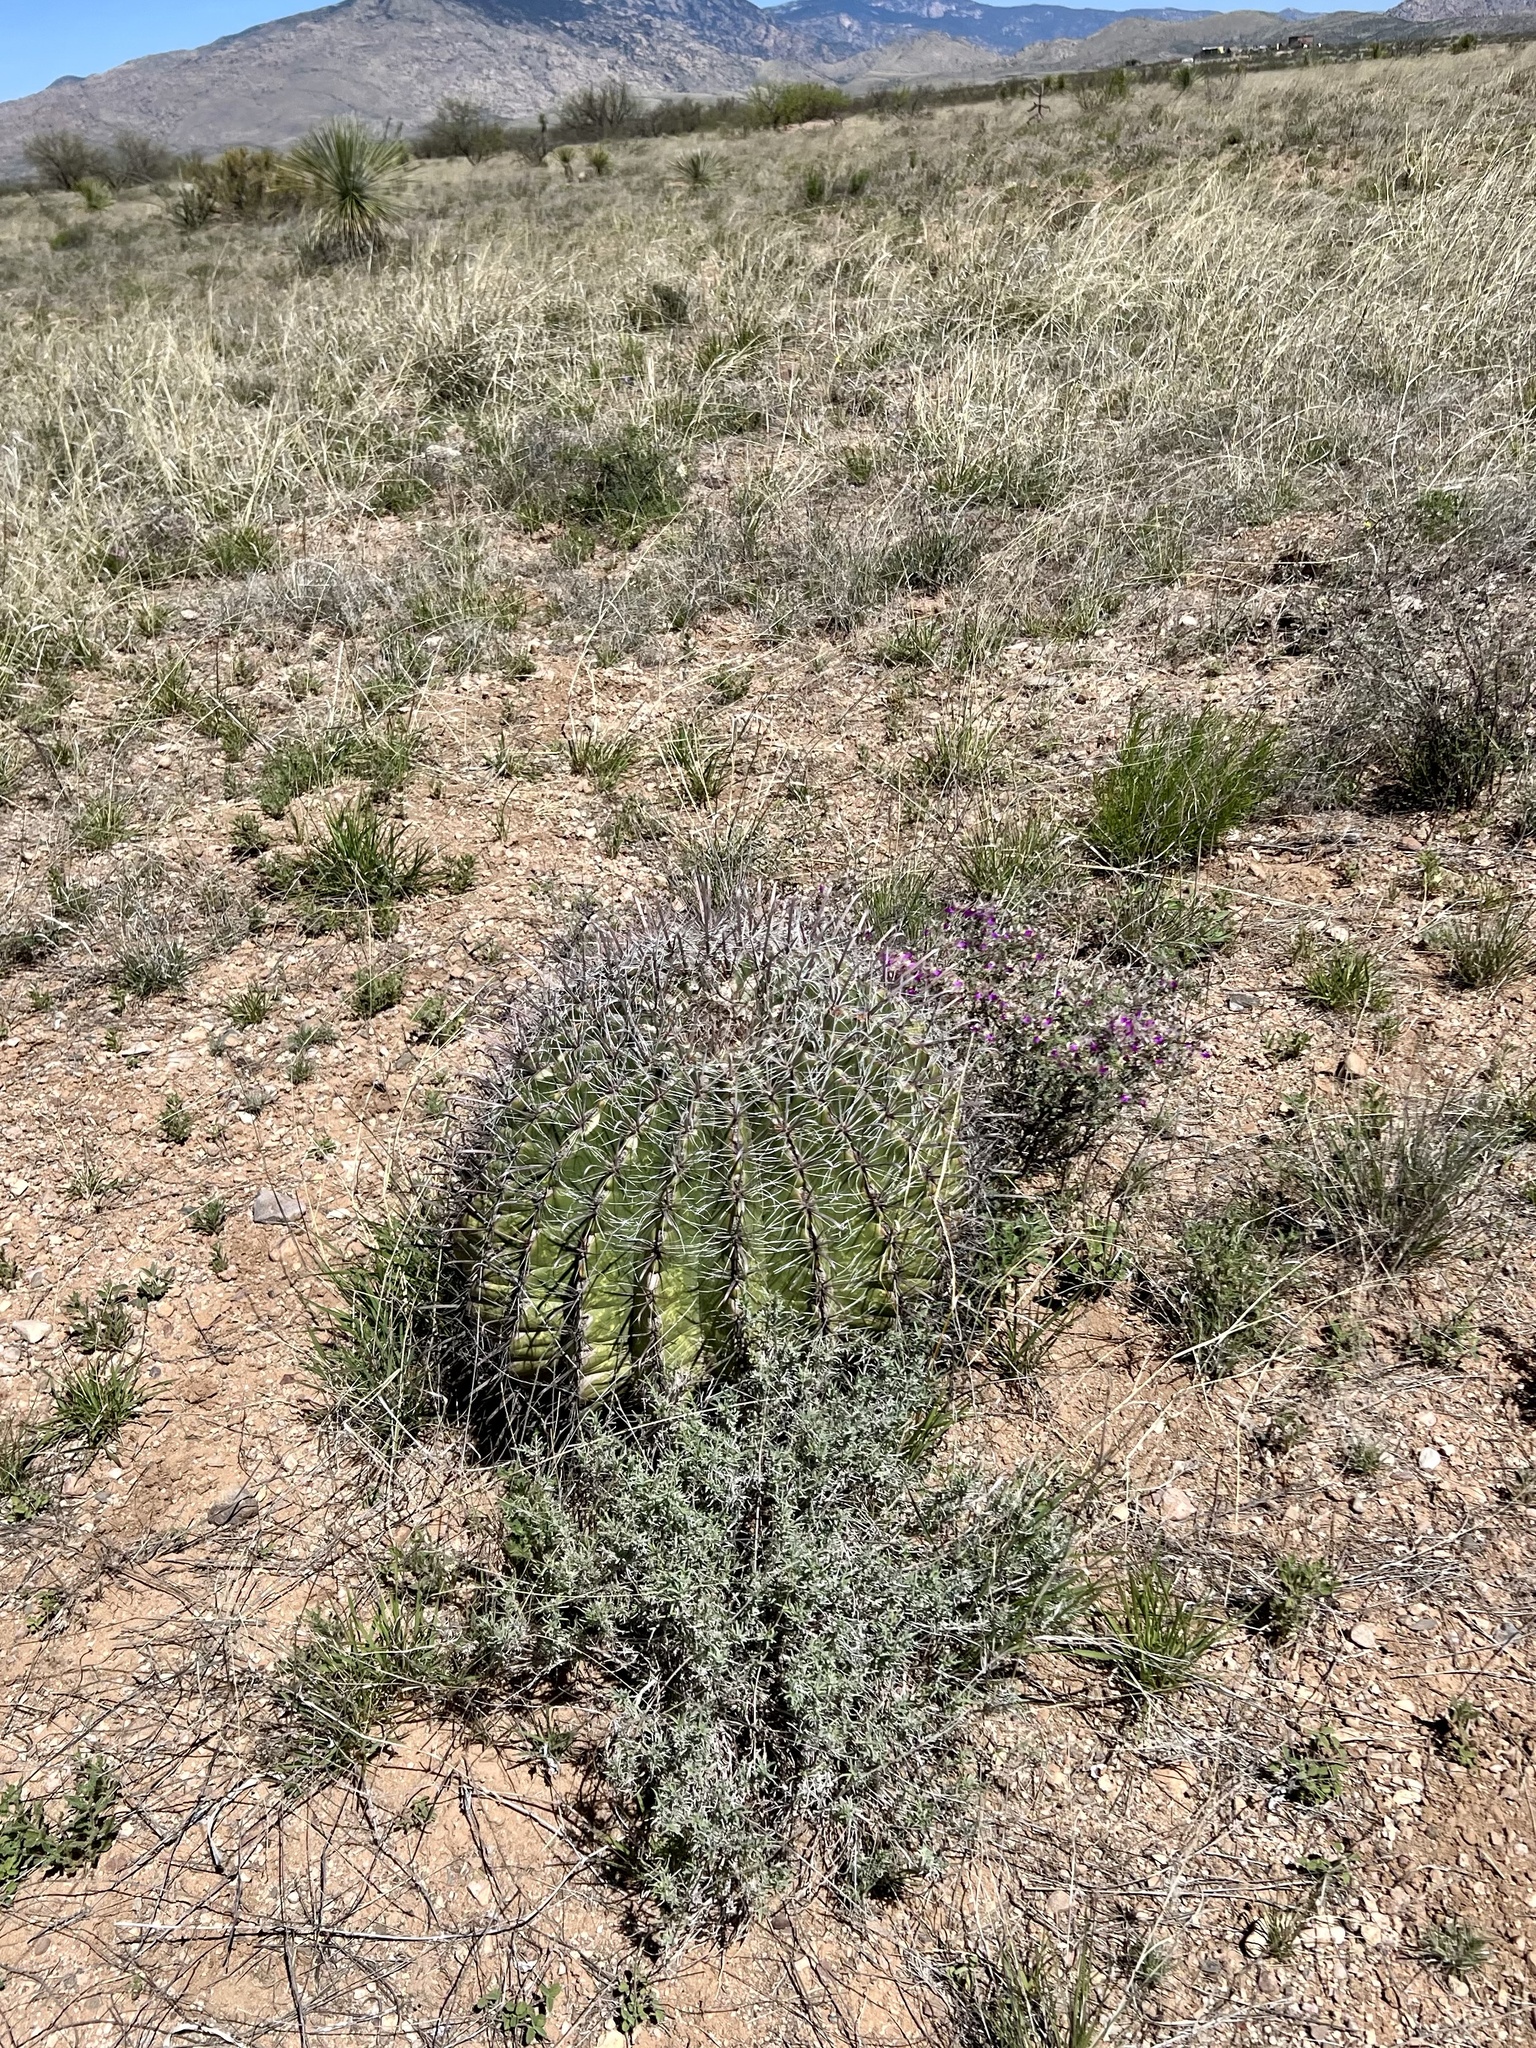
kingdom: Plantae
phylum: Tracheophyta
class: Magnoliopsida
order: Caryophyllales
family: Cactaceae
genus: Ferocactus
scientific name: Ferocactus wislizeni
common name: Candy barrel cactus
